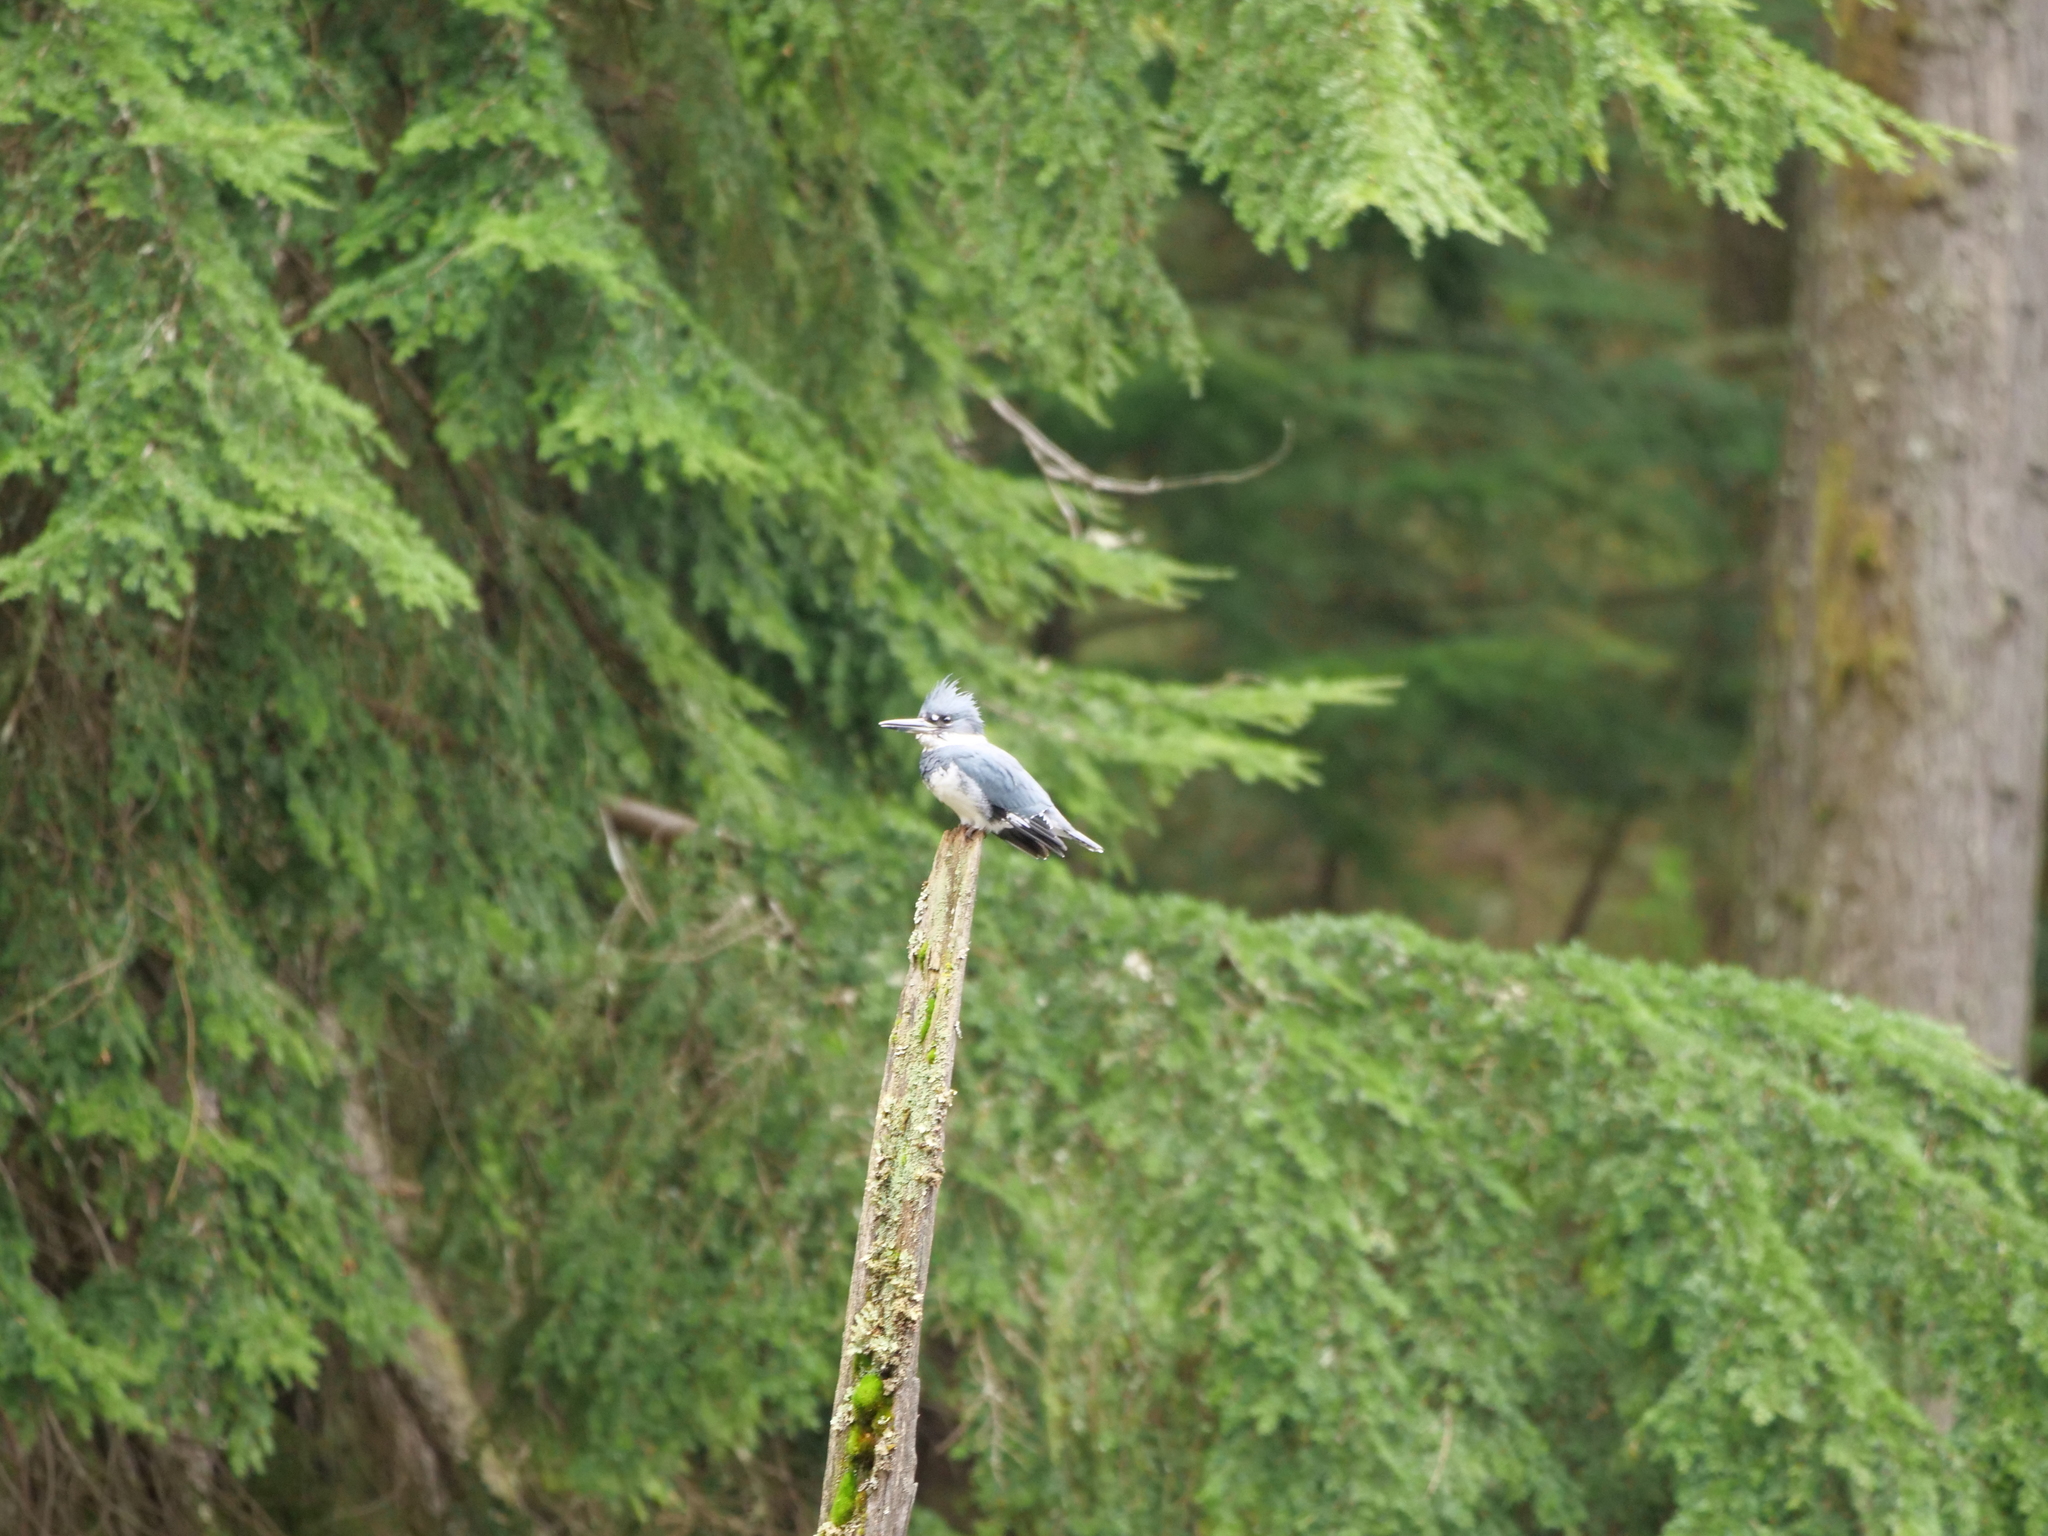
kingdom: Animalia
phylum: Chordata
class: Aves
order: Coraciiformes
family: Alcedinidae
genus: Megaceryle
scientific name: Megaceryle alcyon
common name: Belted kingfisher
